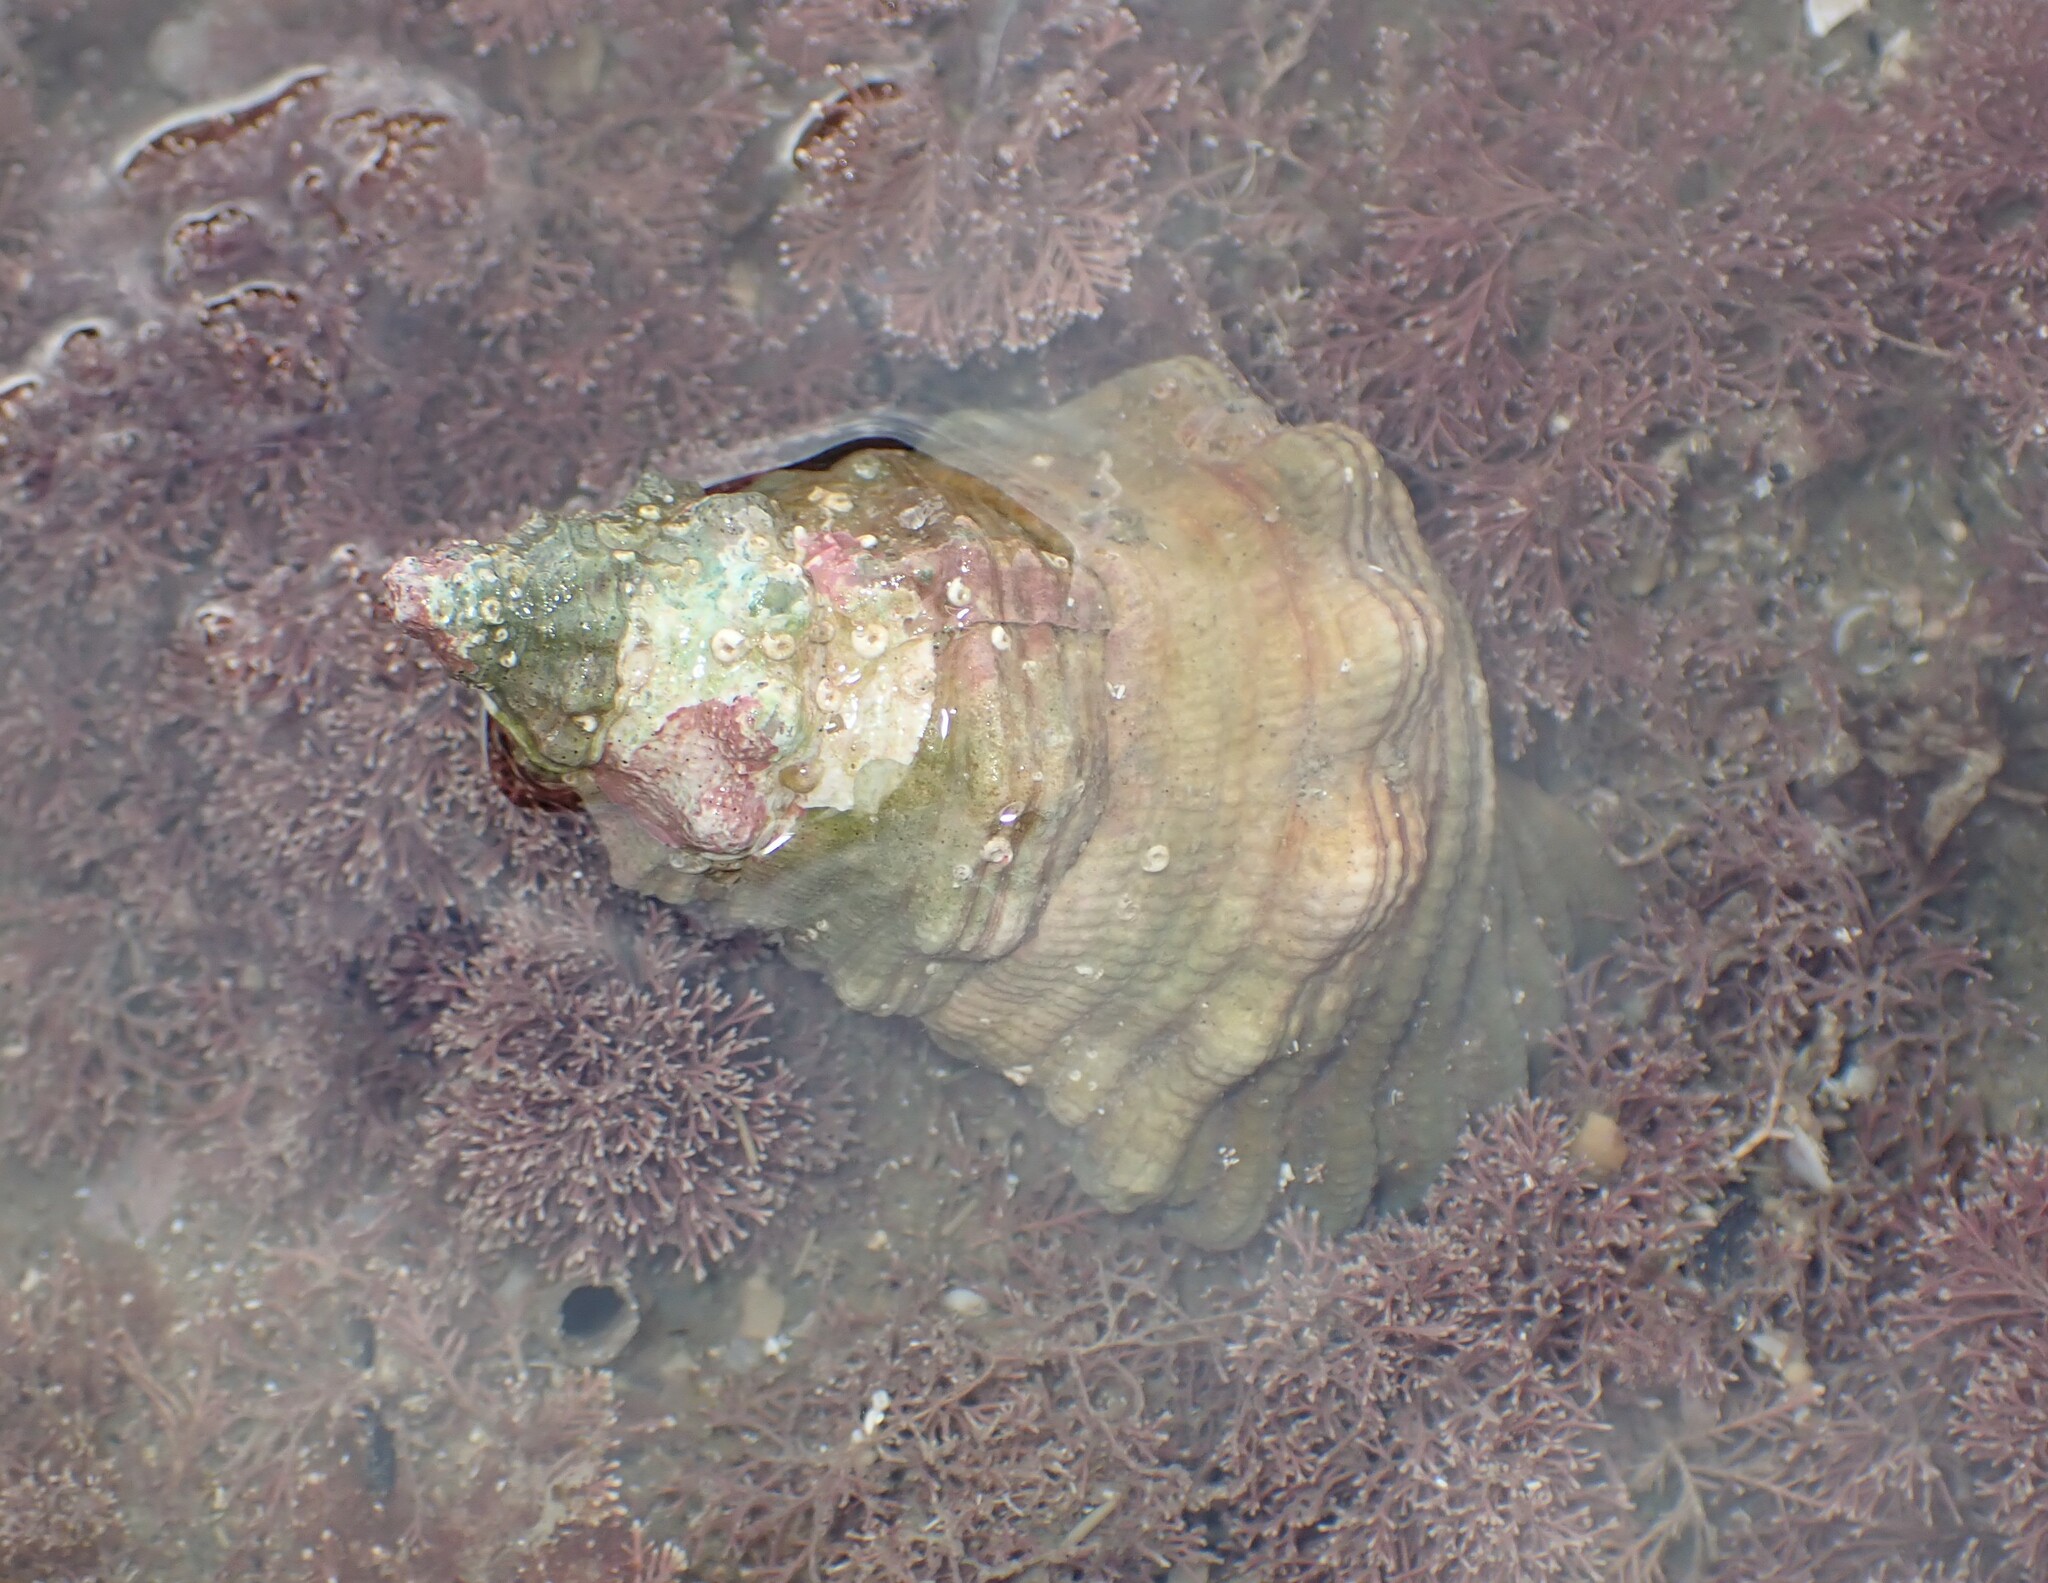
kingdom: Animalia
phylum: Mollusca
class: Gastropoda
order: Littorinimorpha
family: Cymatiidae
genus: Cabestana
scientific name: Cabestana spengleri
